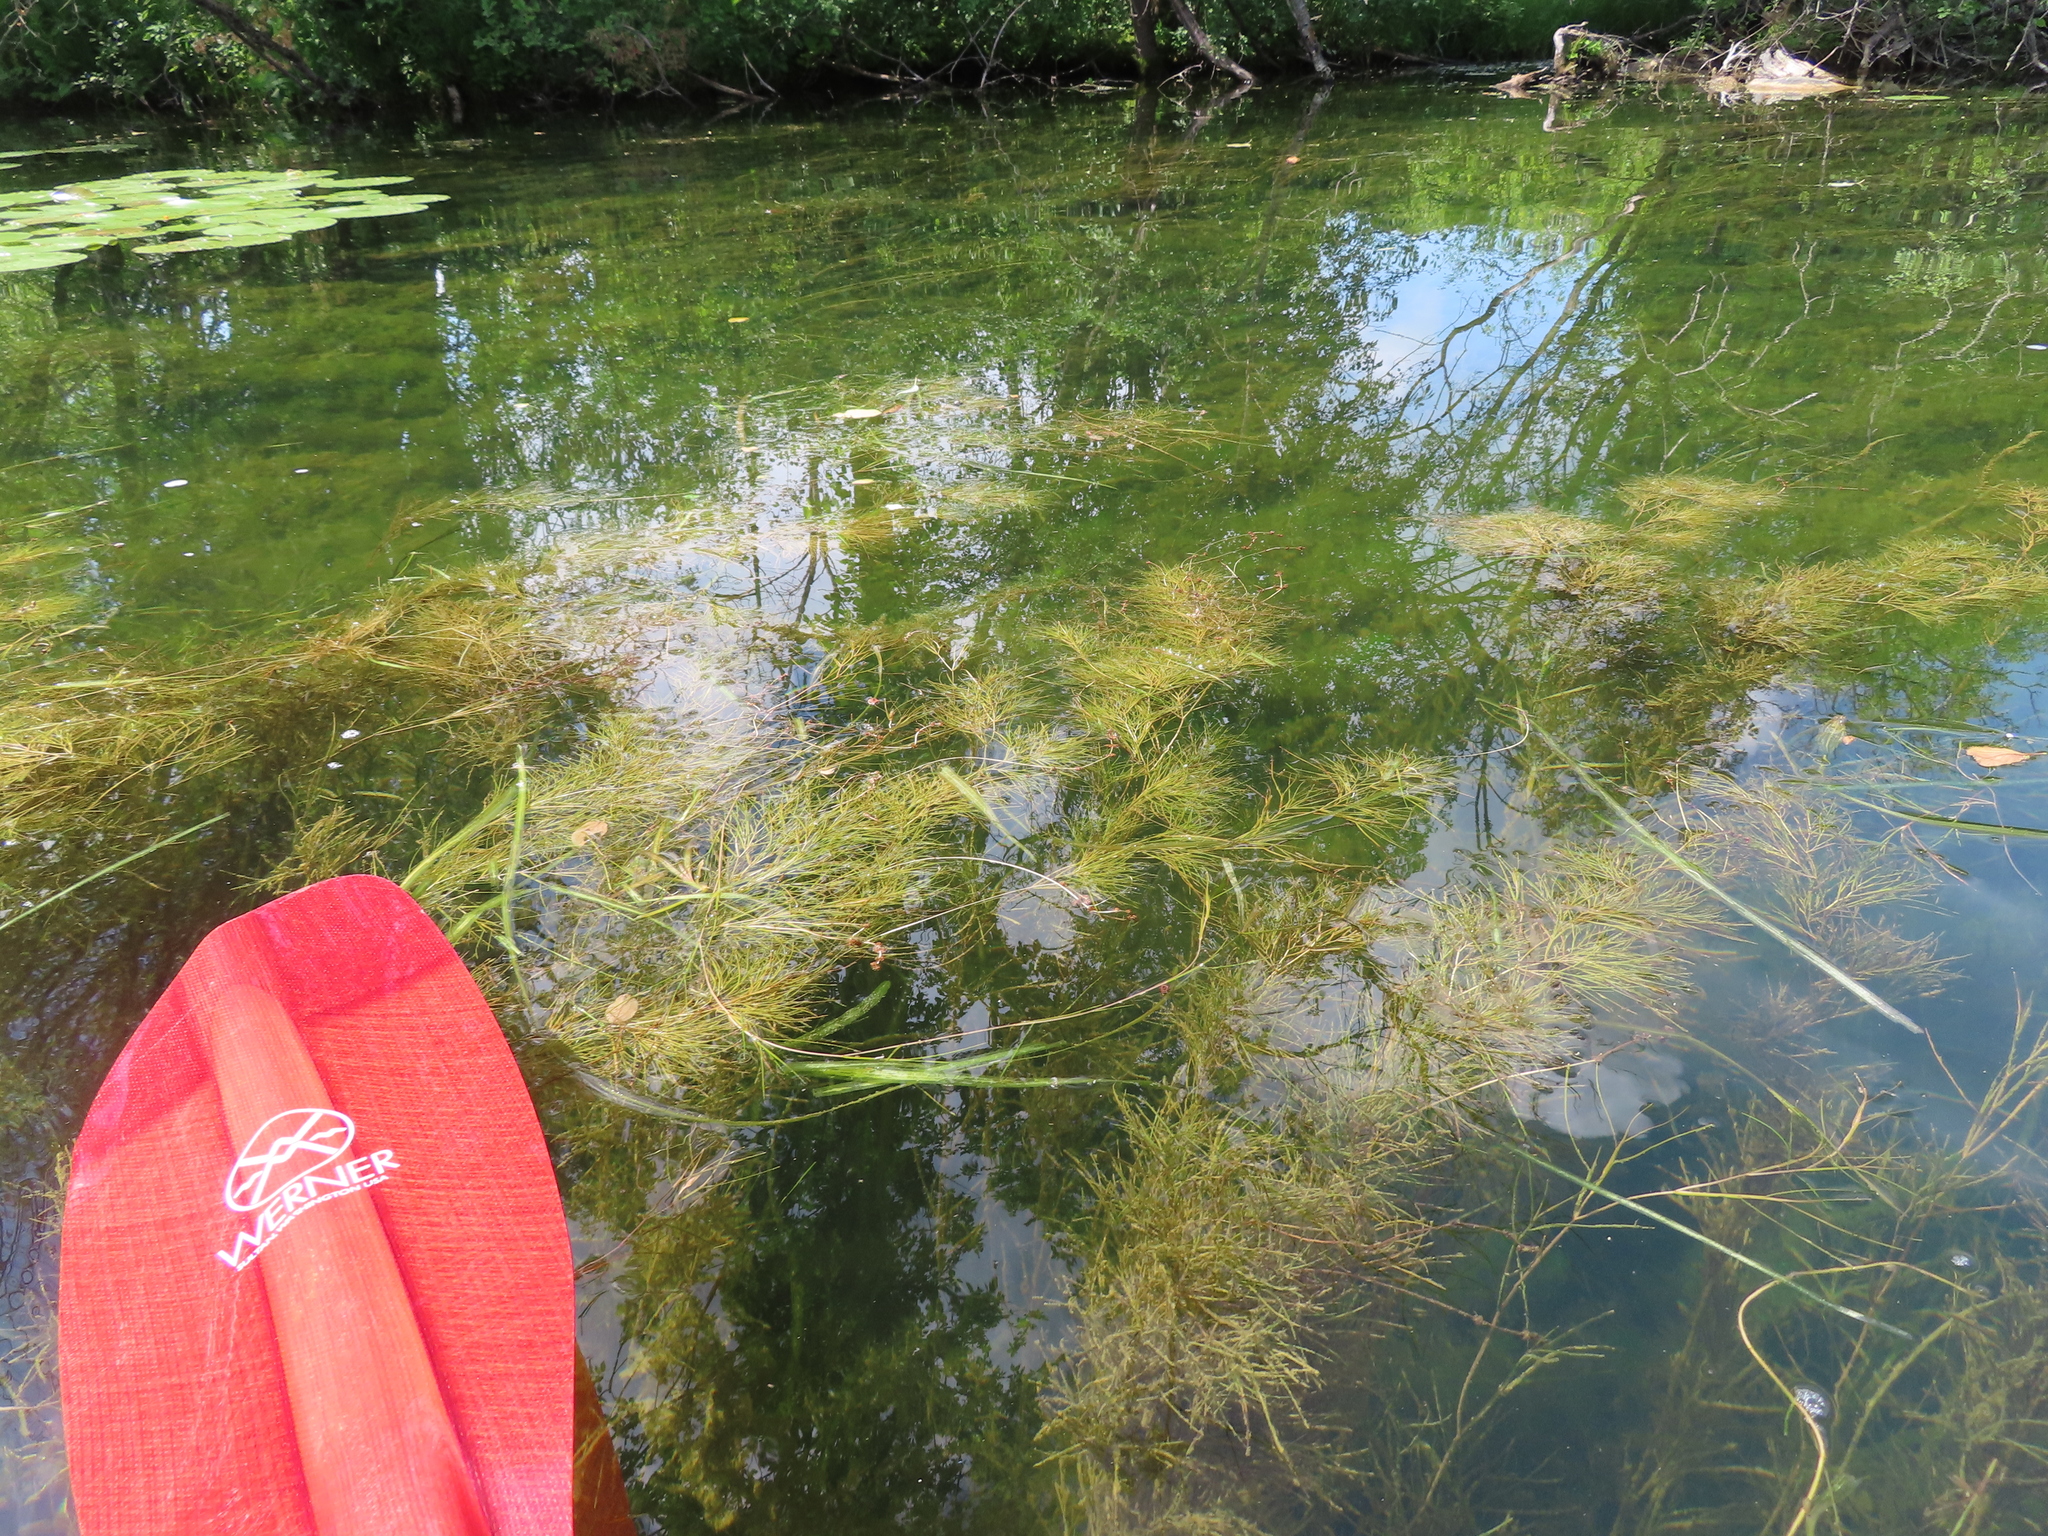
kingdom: Plantae
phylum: Tracheophyta
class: Liliopsida
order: Alismatales
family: Potamogetonaceae
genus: Stuckenia
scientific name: Stuckenia pectinata
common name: Sago pondweed
